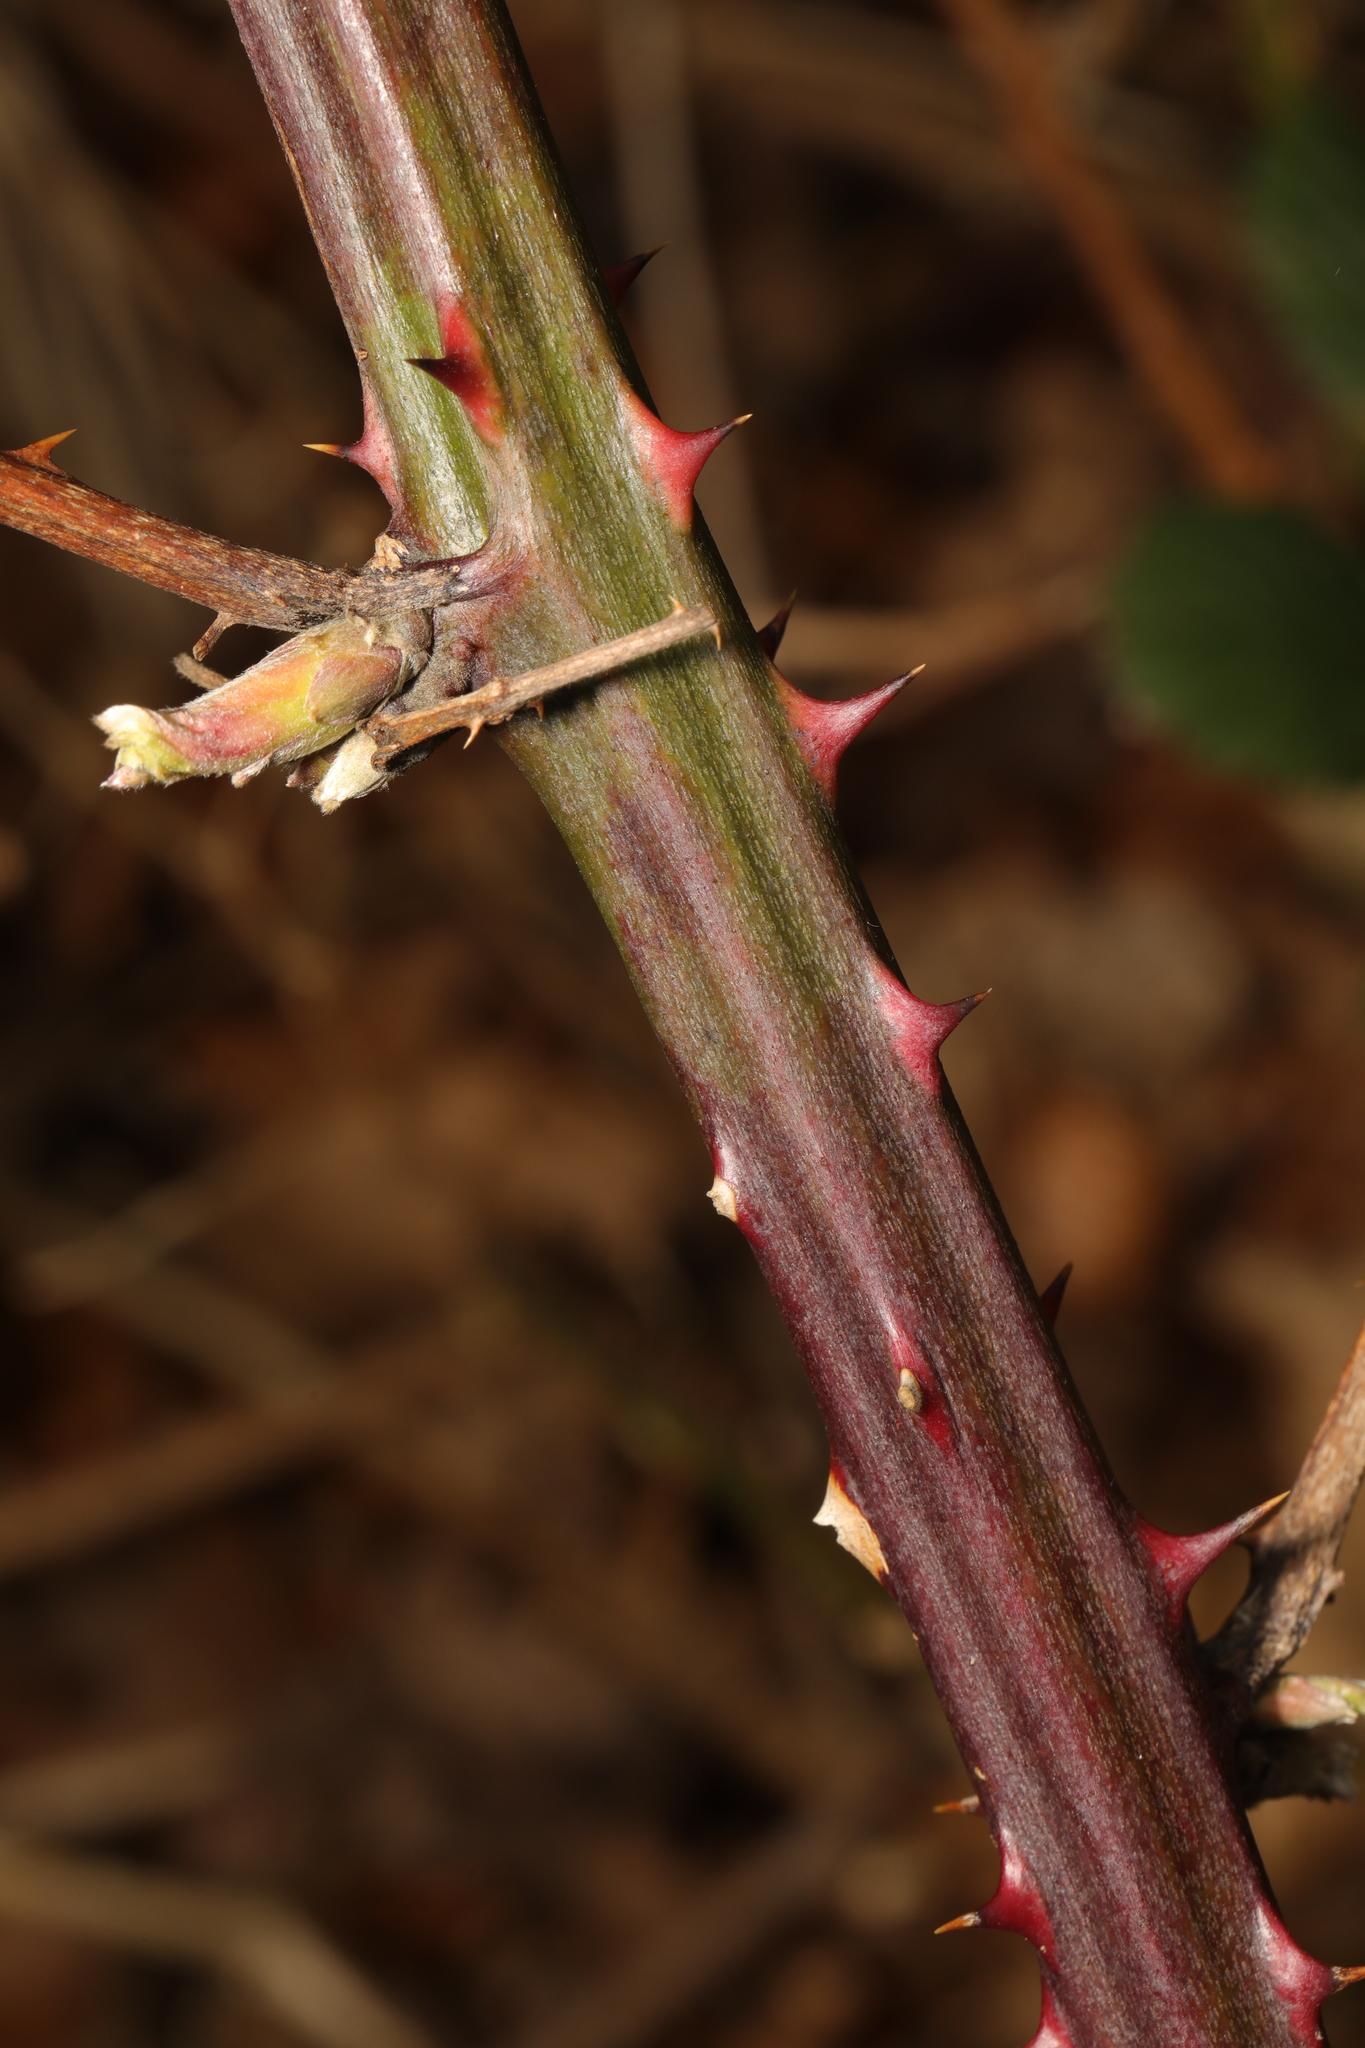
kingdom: Plantae
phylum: Tracheophyta
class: Magnoliopsida
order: Rosales
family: Rosaceae
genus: Rubus
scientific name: Rubus armeniacus
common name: Himalayan blackberry
